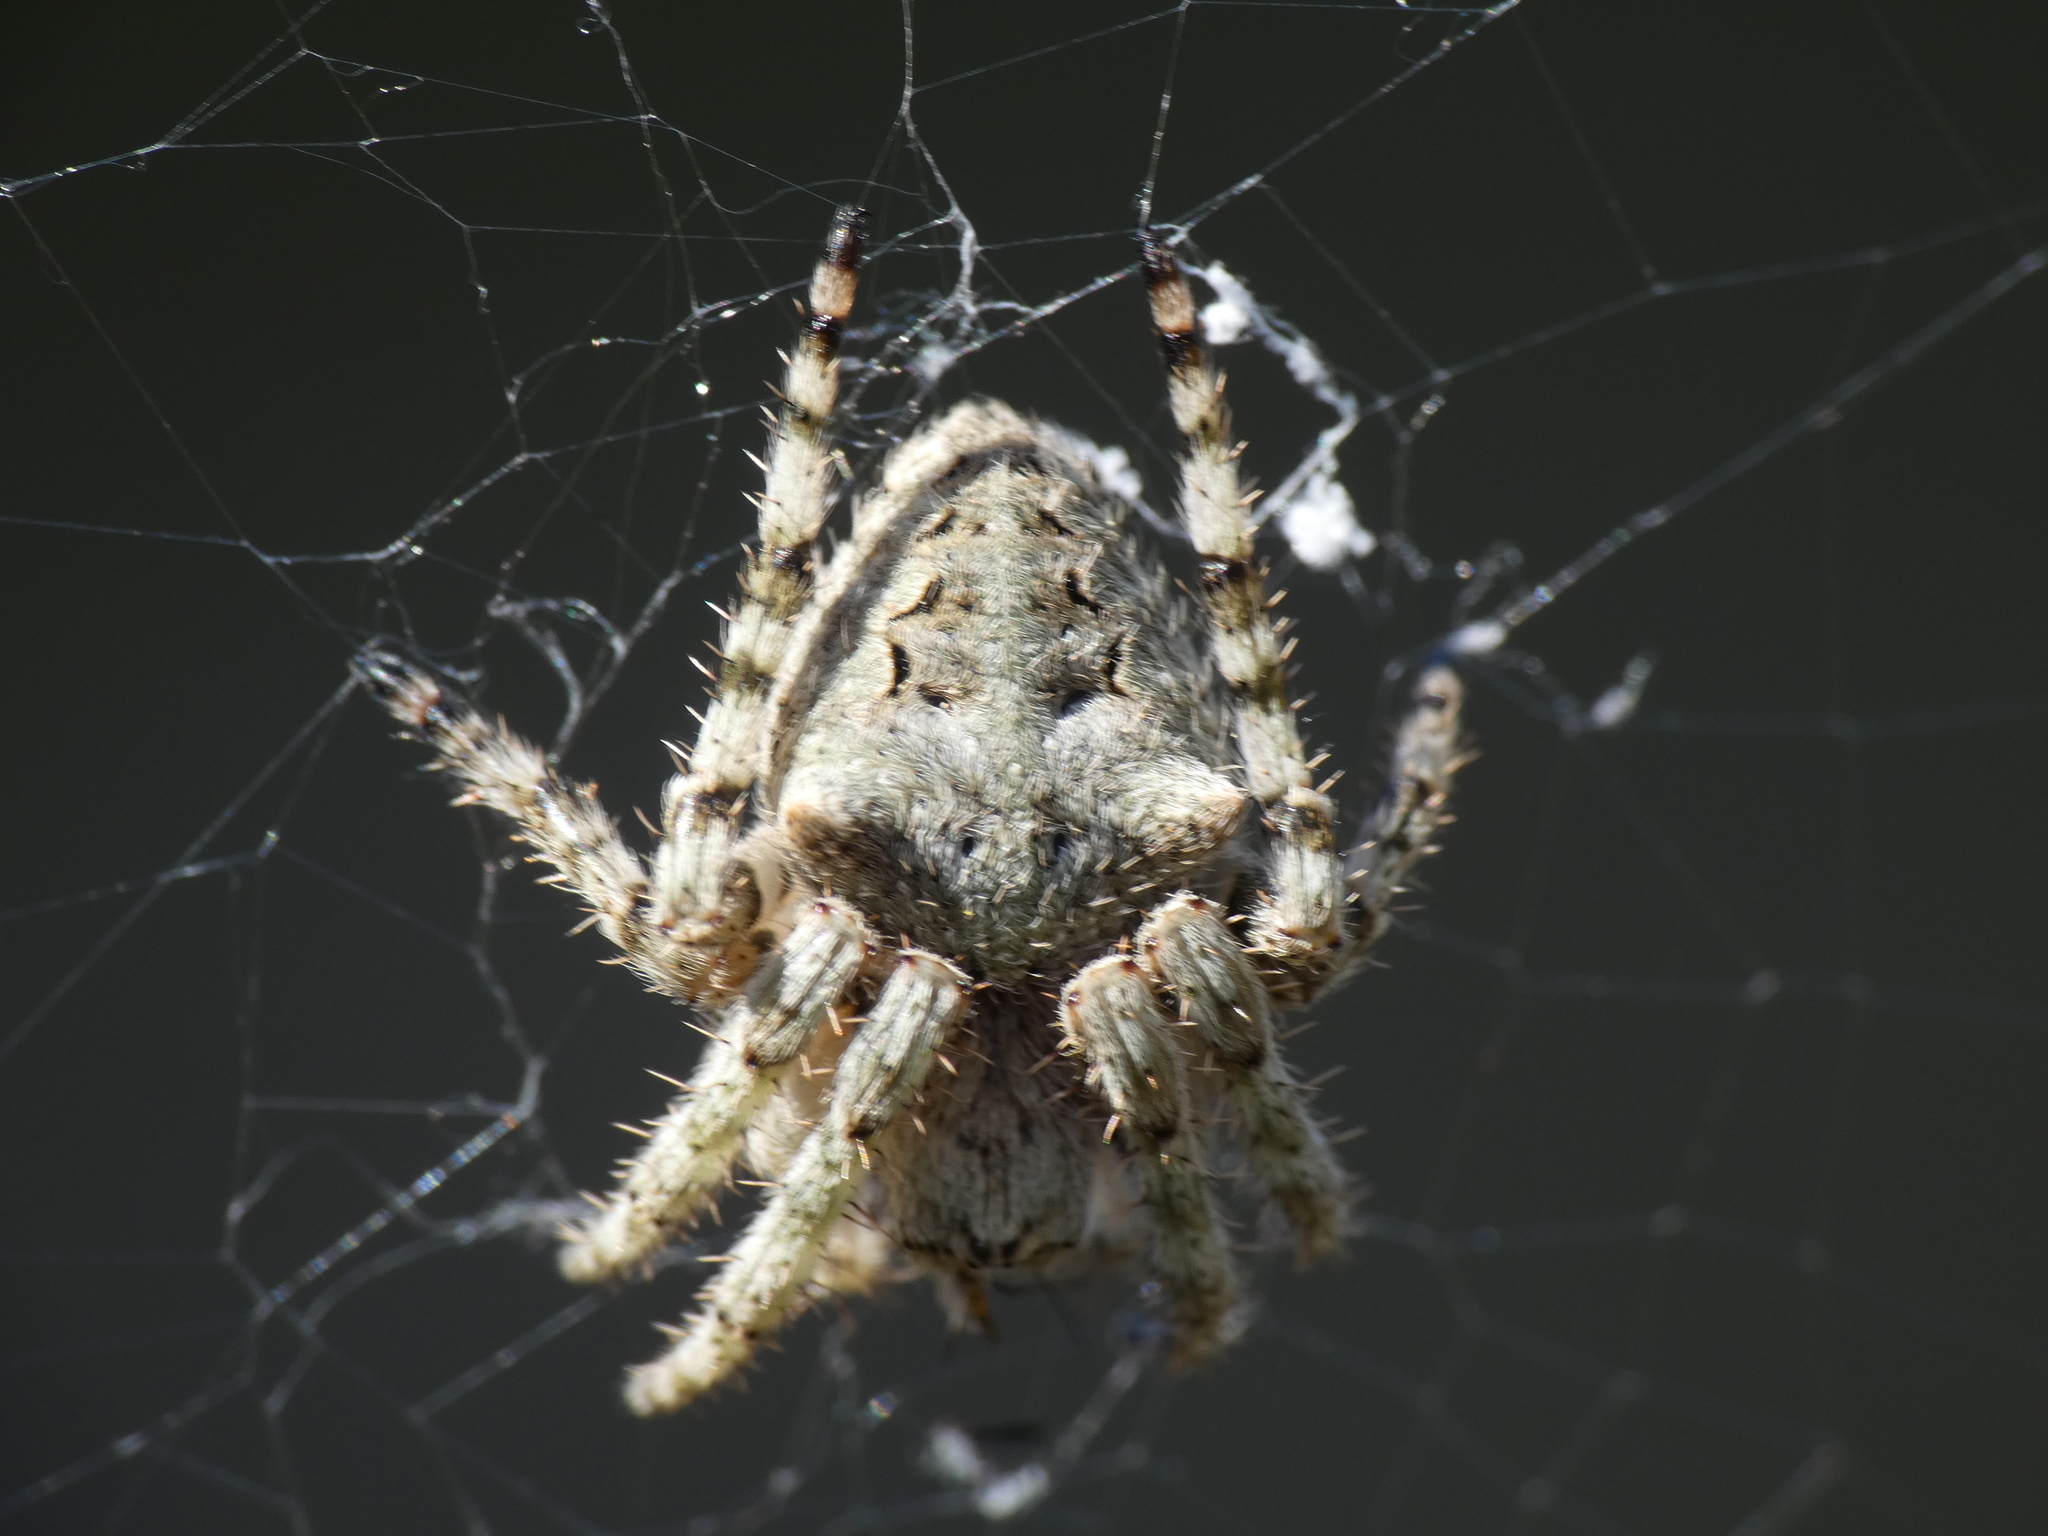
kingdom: Animalia
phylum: Arthropoda
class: Arachnida
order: Araneae
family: Araneidae
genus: Gibbaranea
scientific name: Gibbaranea gibbosa
